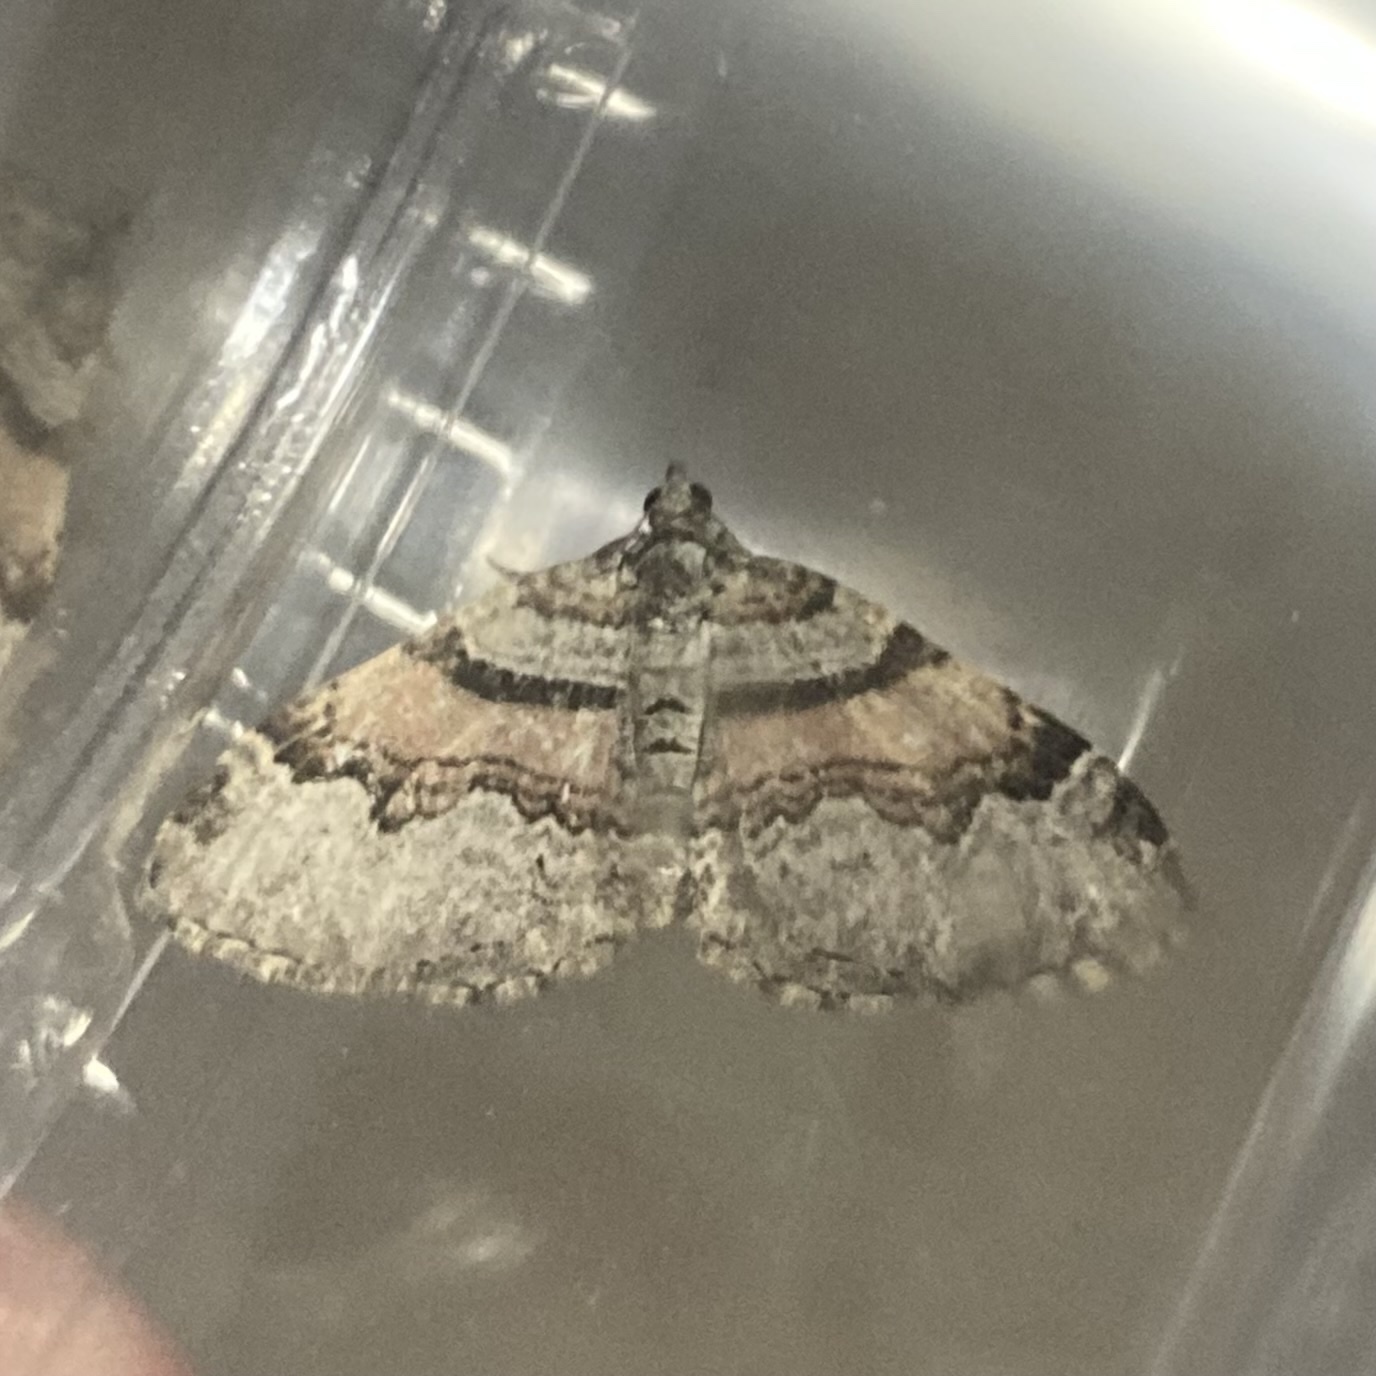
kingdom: Animalia
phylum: Arthropoda
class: Insecta
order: Lepidoptera
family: Geometridae
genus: Xanthorhoe
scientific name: Xanthorhoe labradorensis
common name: Labrador carpet
